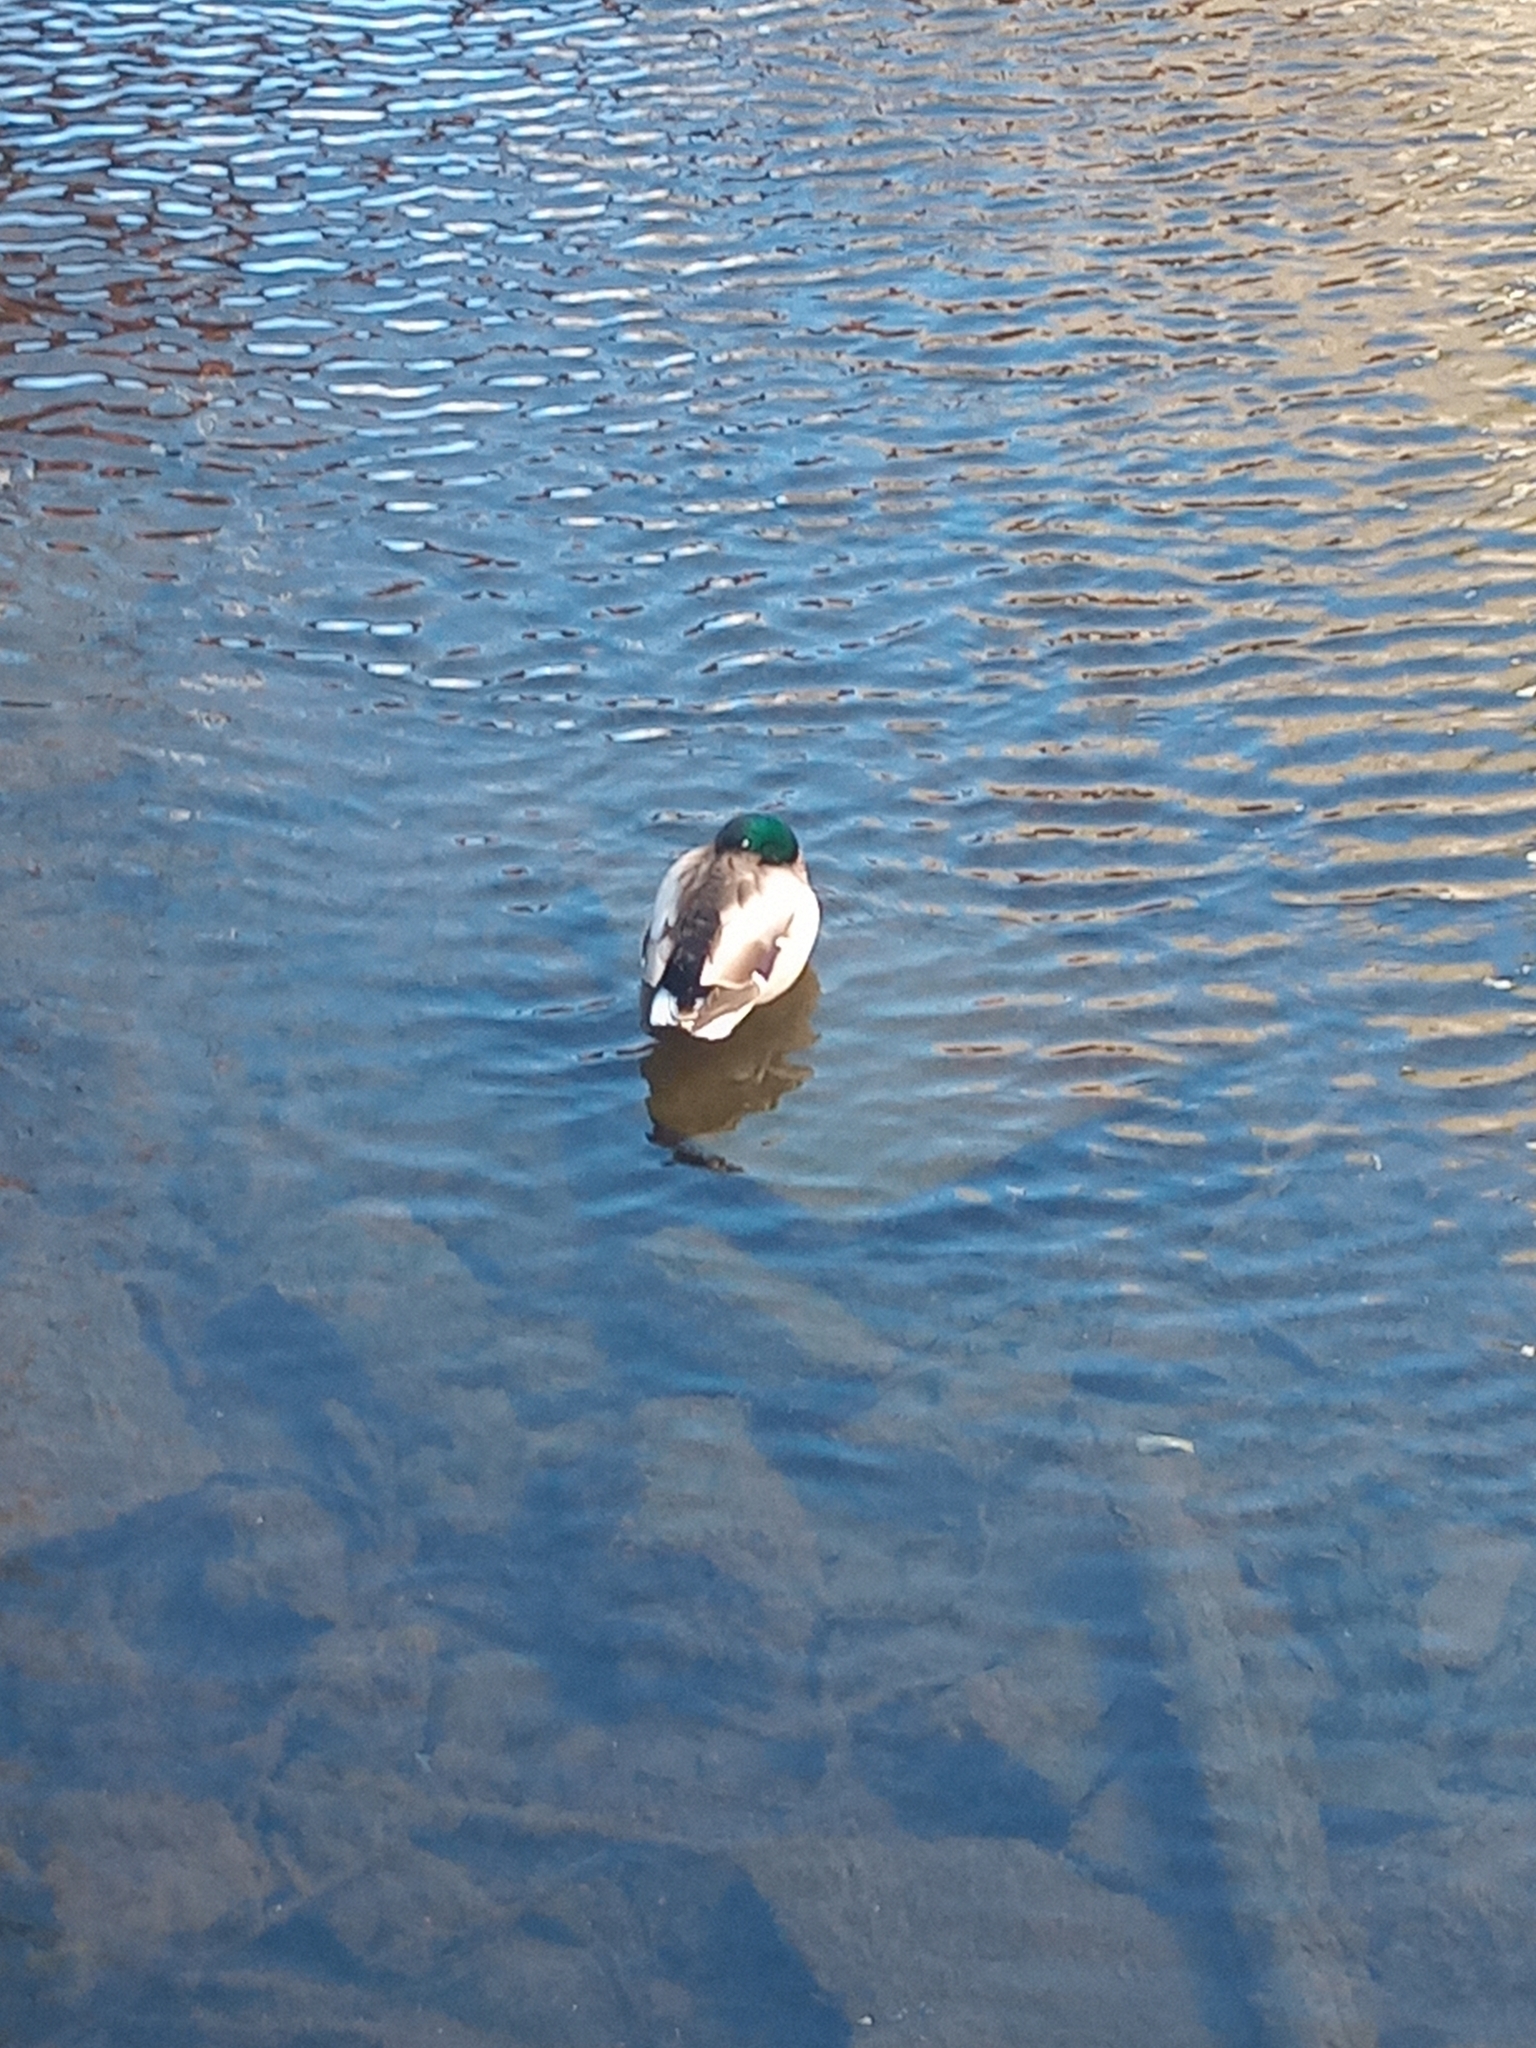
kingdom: Animalia
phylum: Chordata
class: Aves
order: Anseriformes
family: Anatidae
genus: Anas
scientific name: Anas platyrhynchos
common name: Mallard
